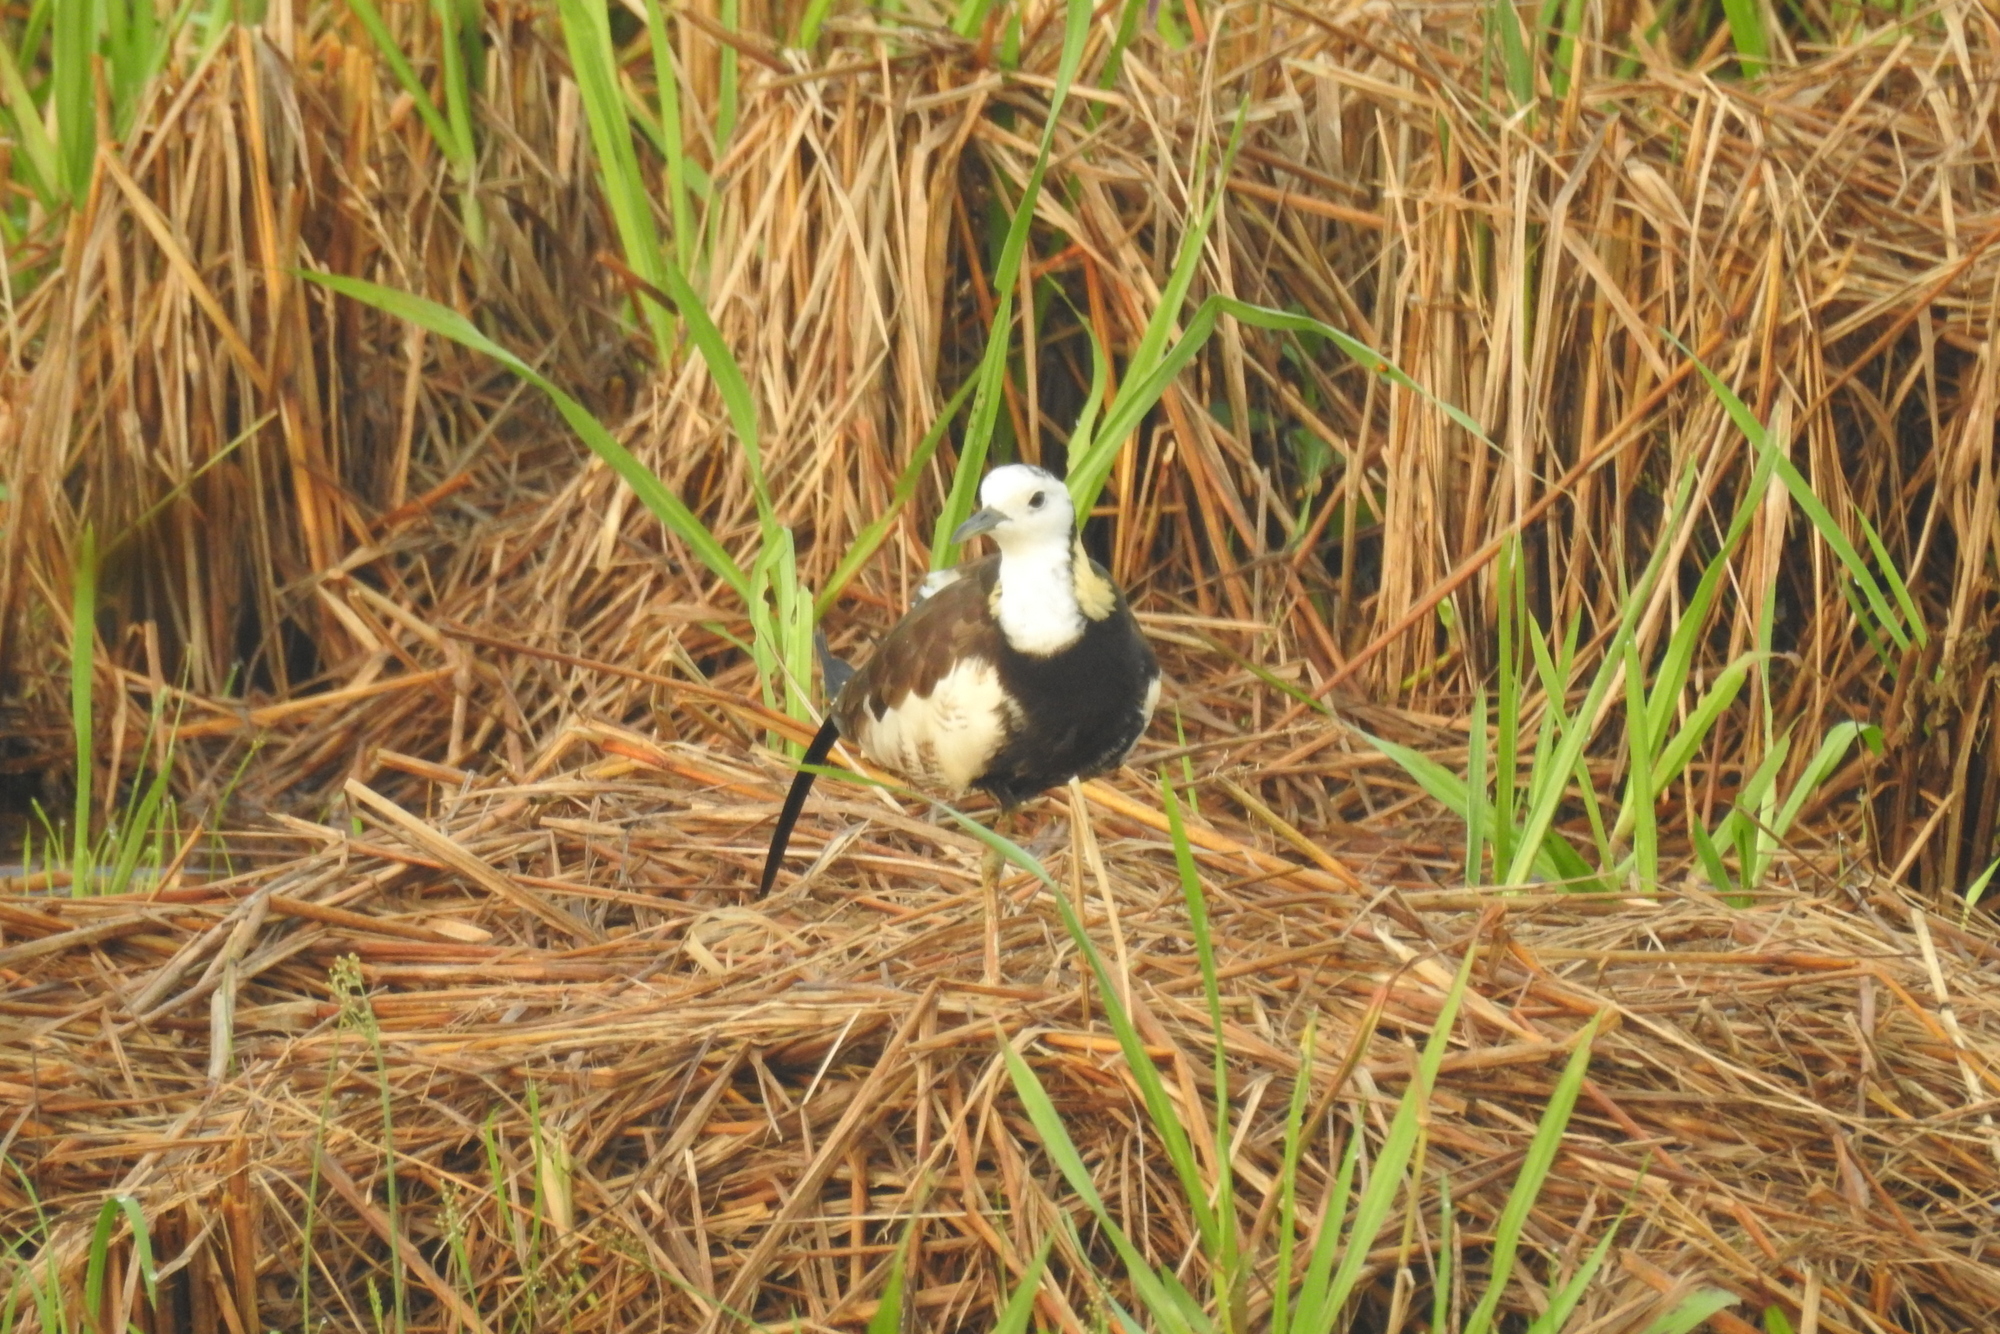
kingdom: Animalia
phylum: Chordata
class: Aves
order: Charadriiformes
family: Jacanidae
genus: Hydrophasianus
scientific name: Hydrophasianus chirurgus
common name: Pheasant-tailed jacana
